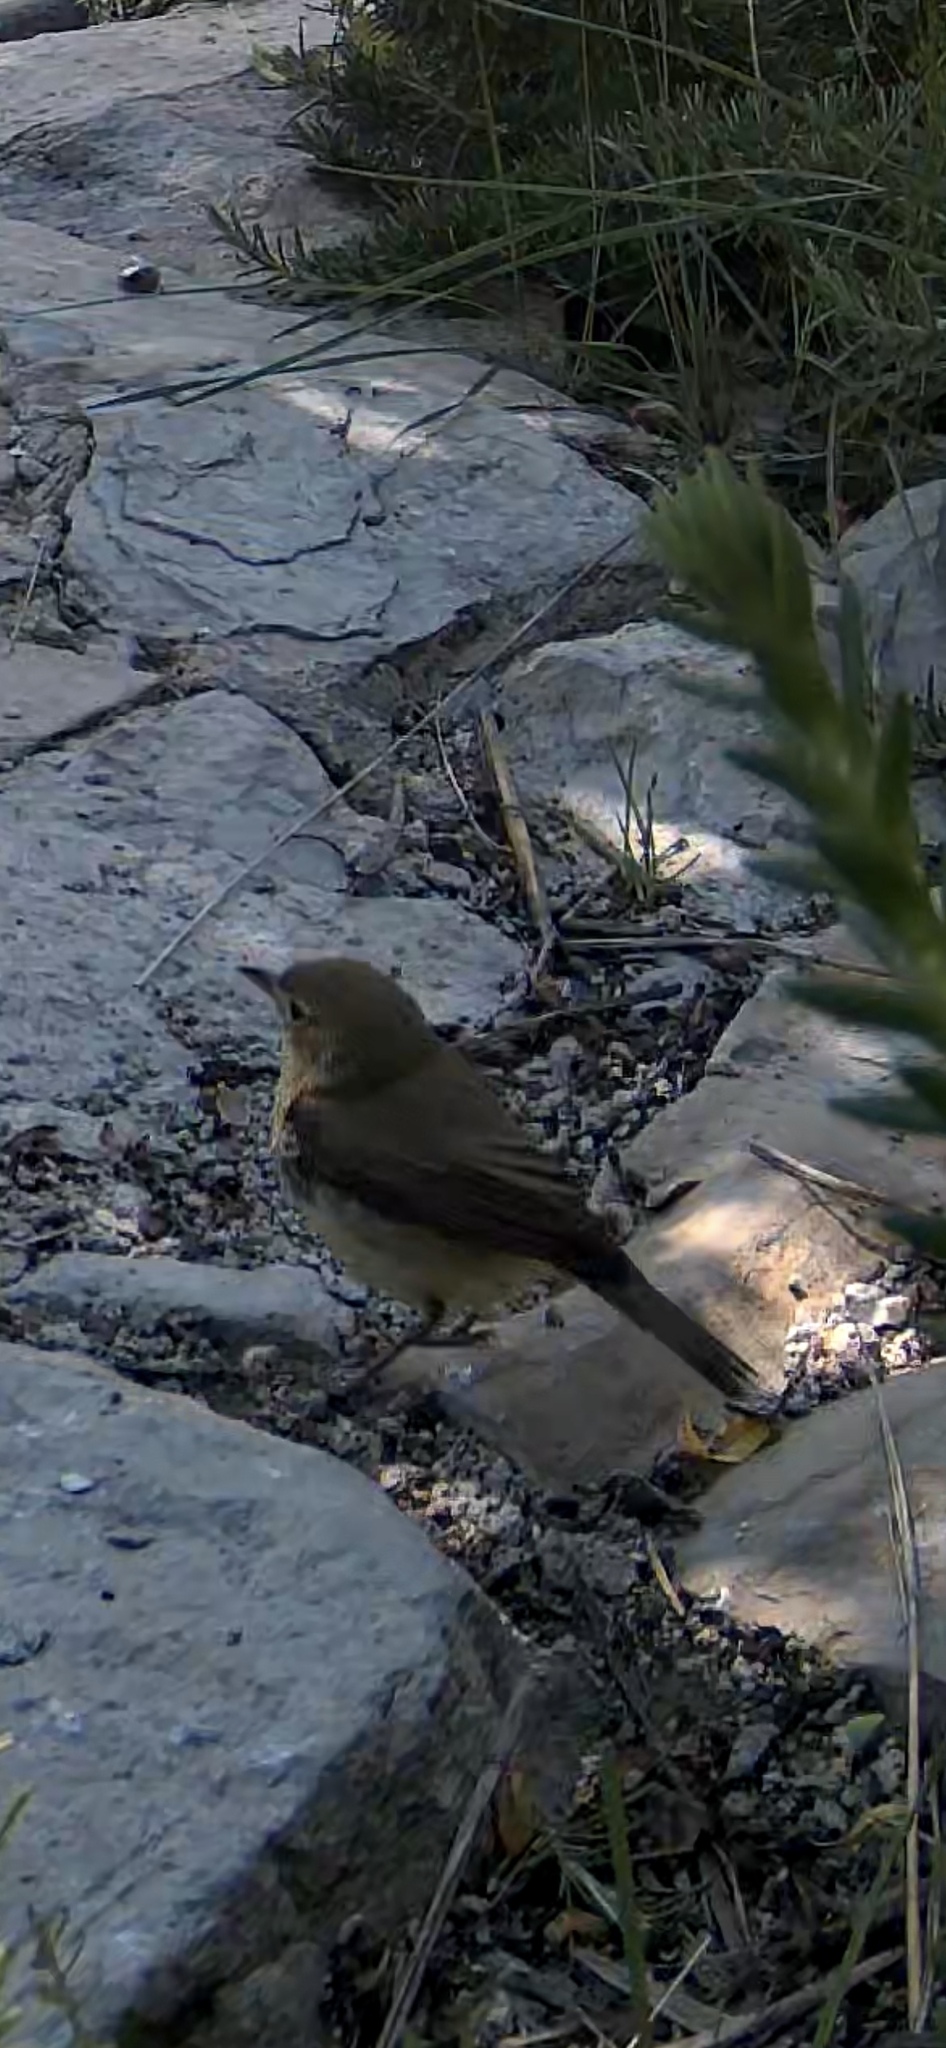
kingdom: Animalia
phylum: Chordata
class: Aves
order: Passeriformes
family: Acrocephalidae
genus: Hippolais
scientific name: Hippolais polyglotta
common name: Melodious warbler
